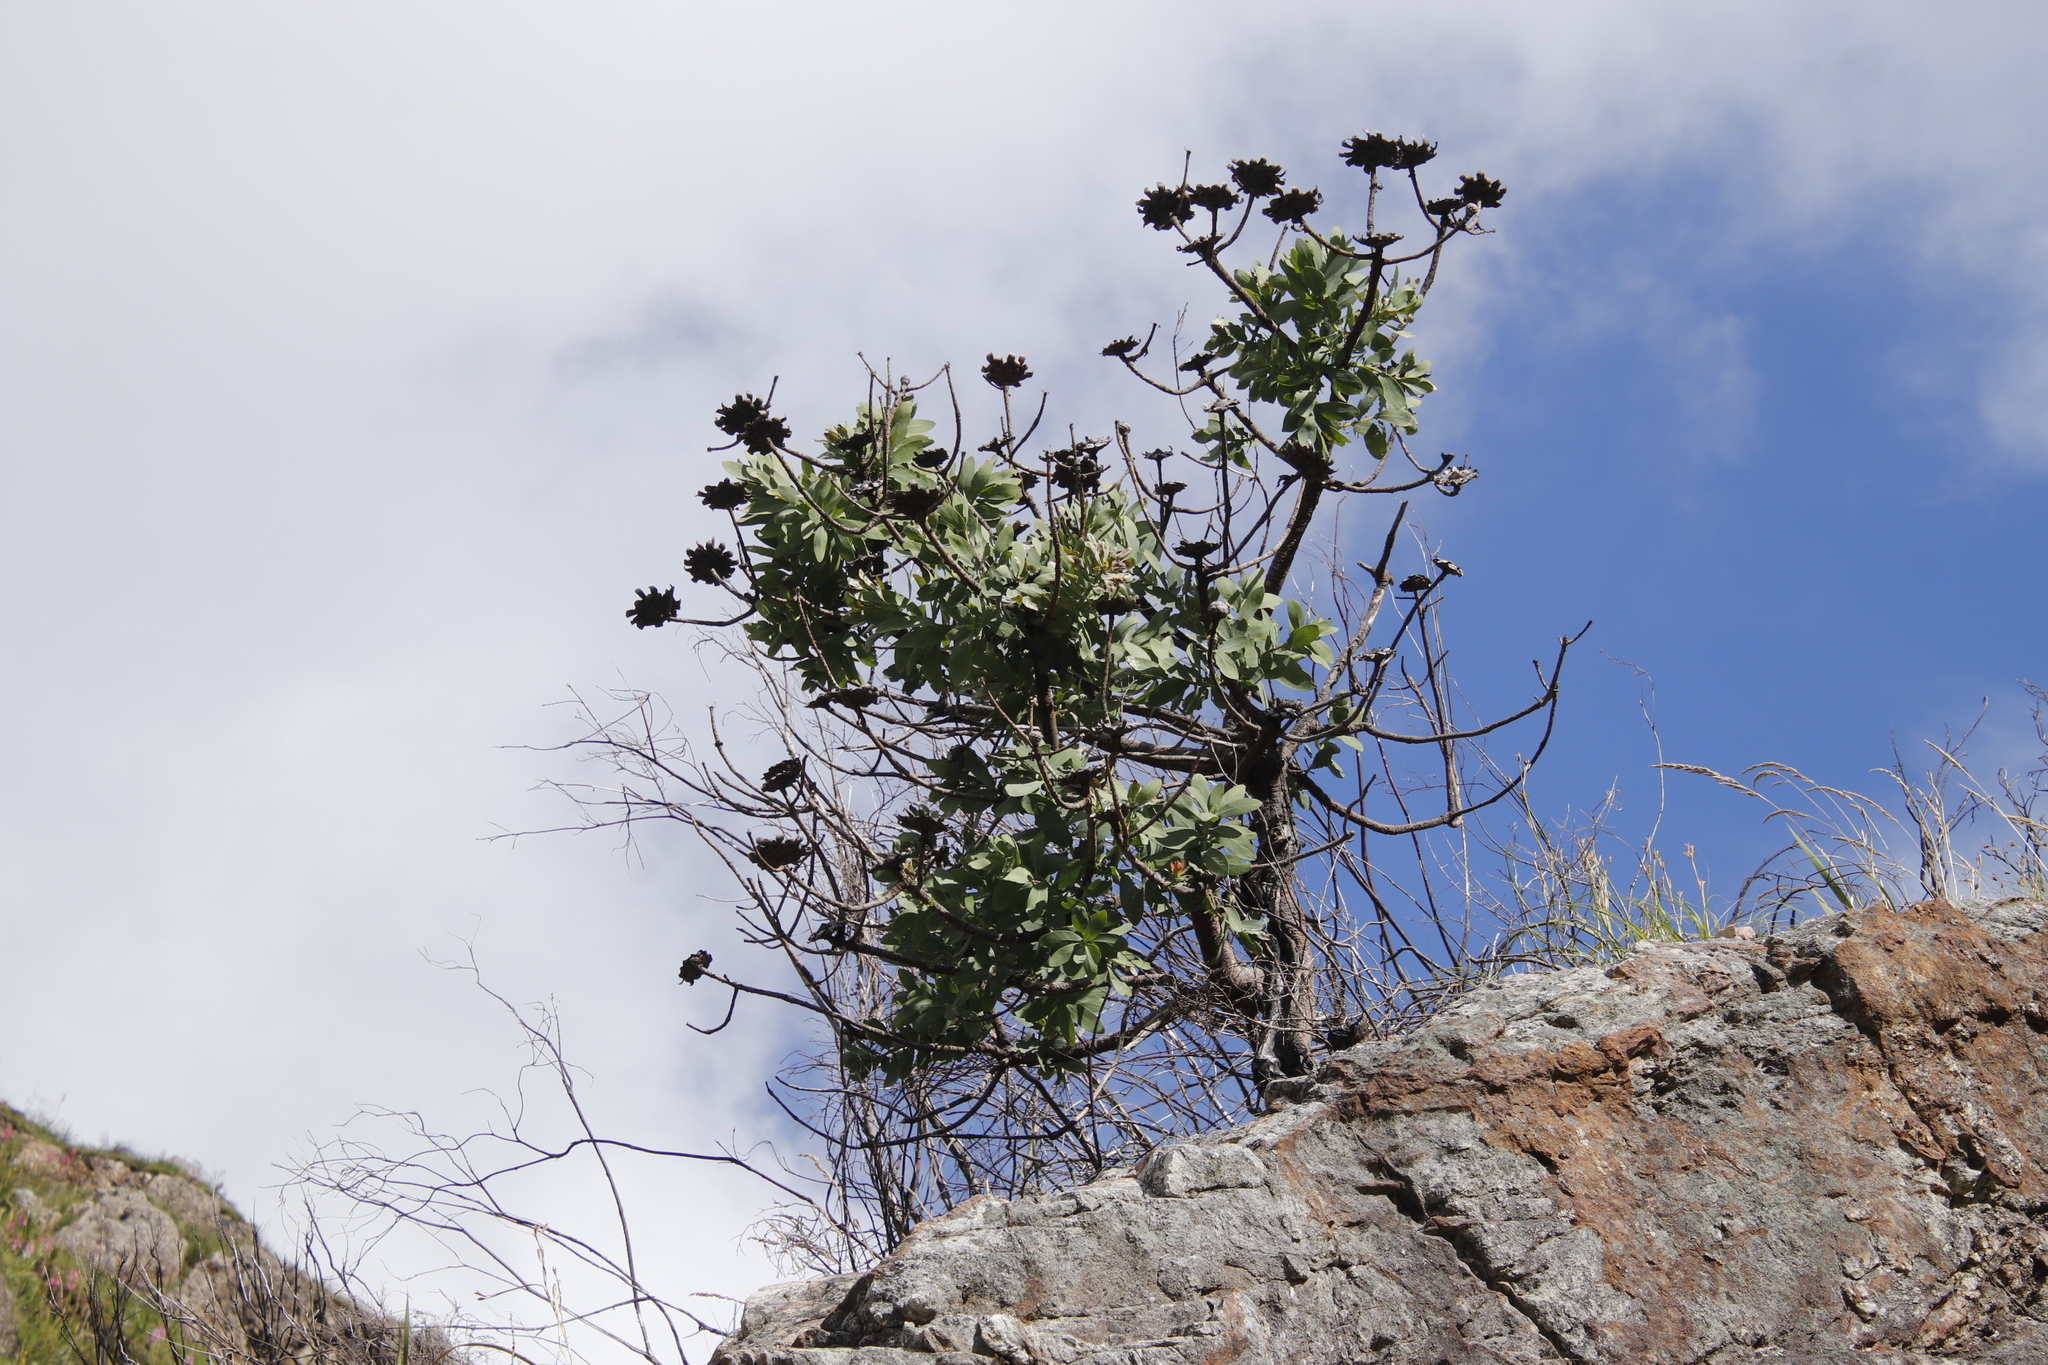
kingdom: Plantae
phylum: Tracheophyta
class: Magnoliopsida
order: Proteales
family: Proteaceae
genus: Protea
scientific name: Protea nitida
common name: Tree protea
